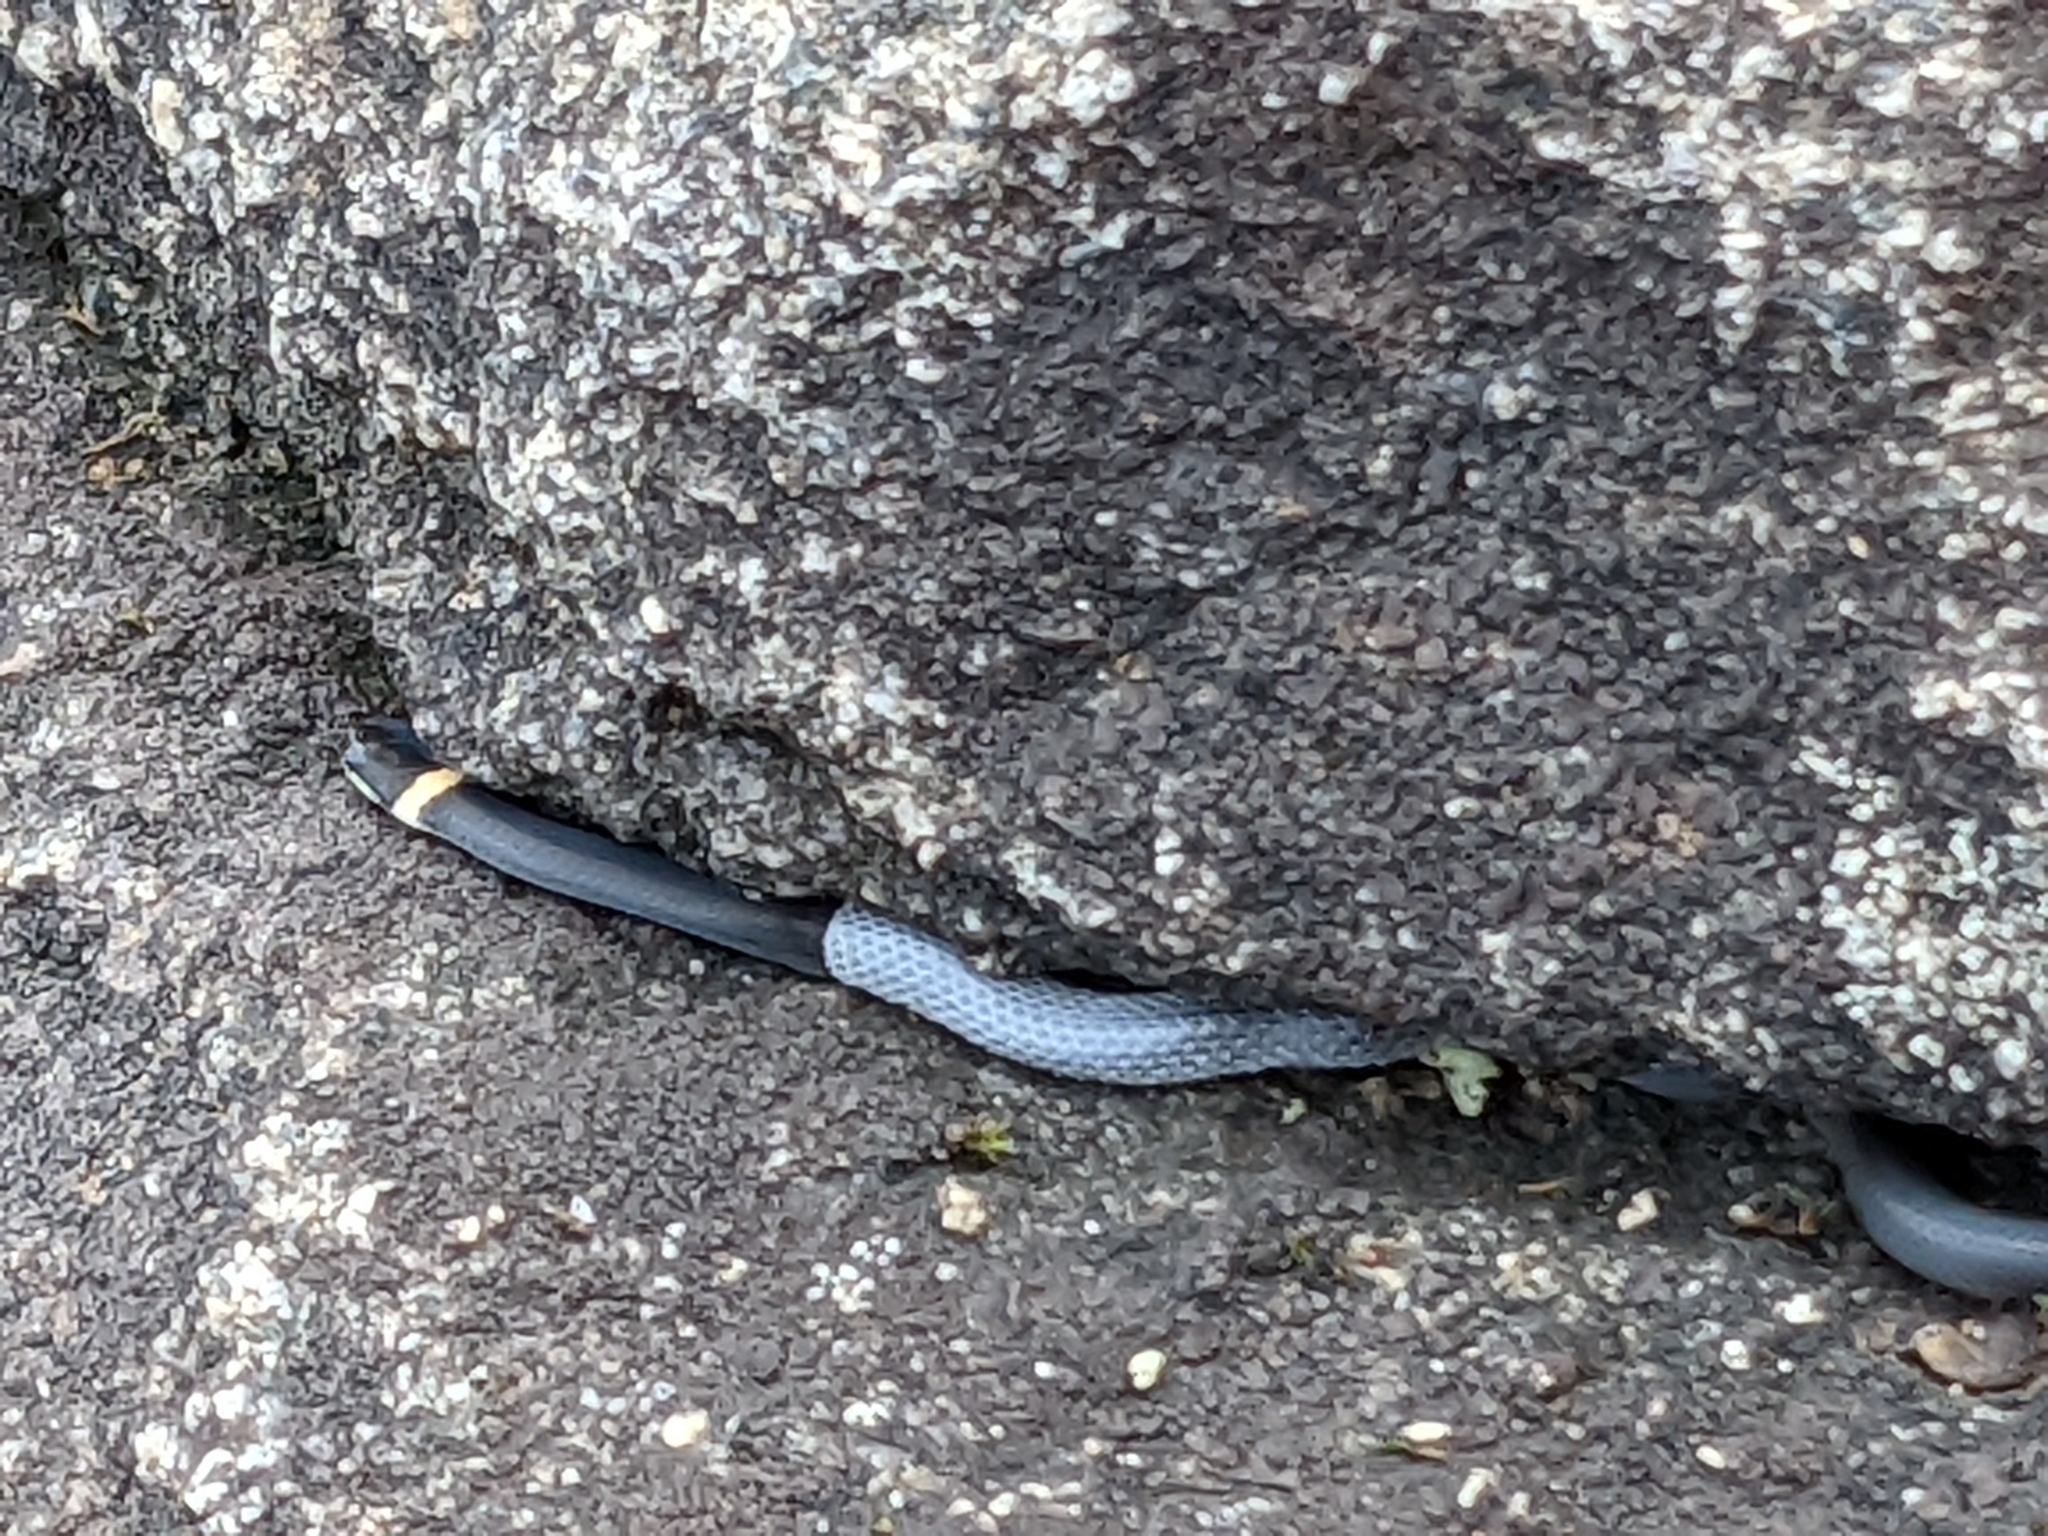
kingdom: Animalia
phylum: Chordata
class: Squamata
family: Colubridae
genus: Diadophis
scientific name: Diadophis punctatus
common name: Ringneck snake
